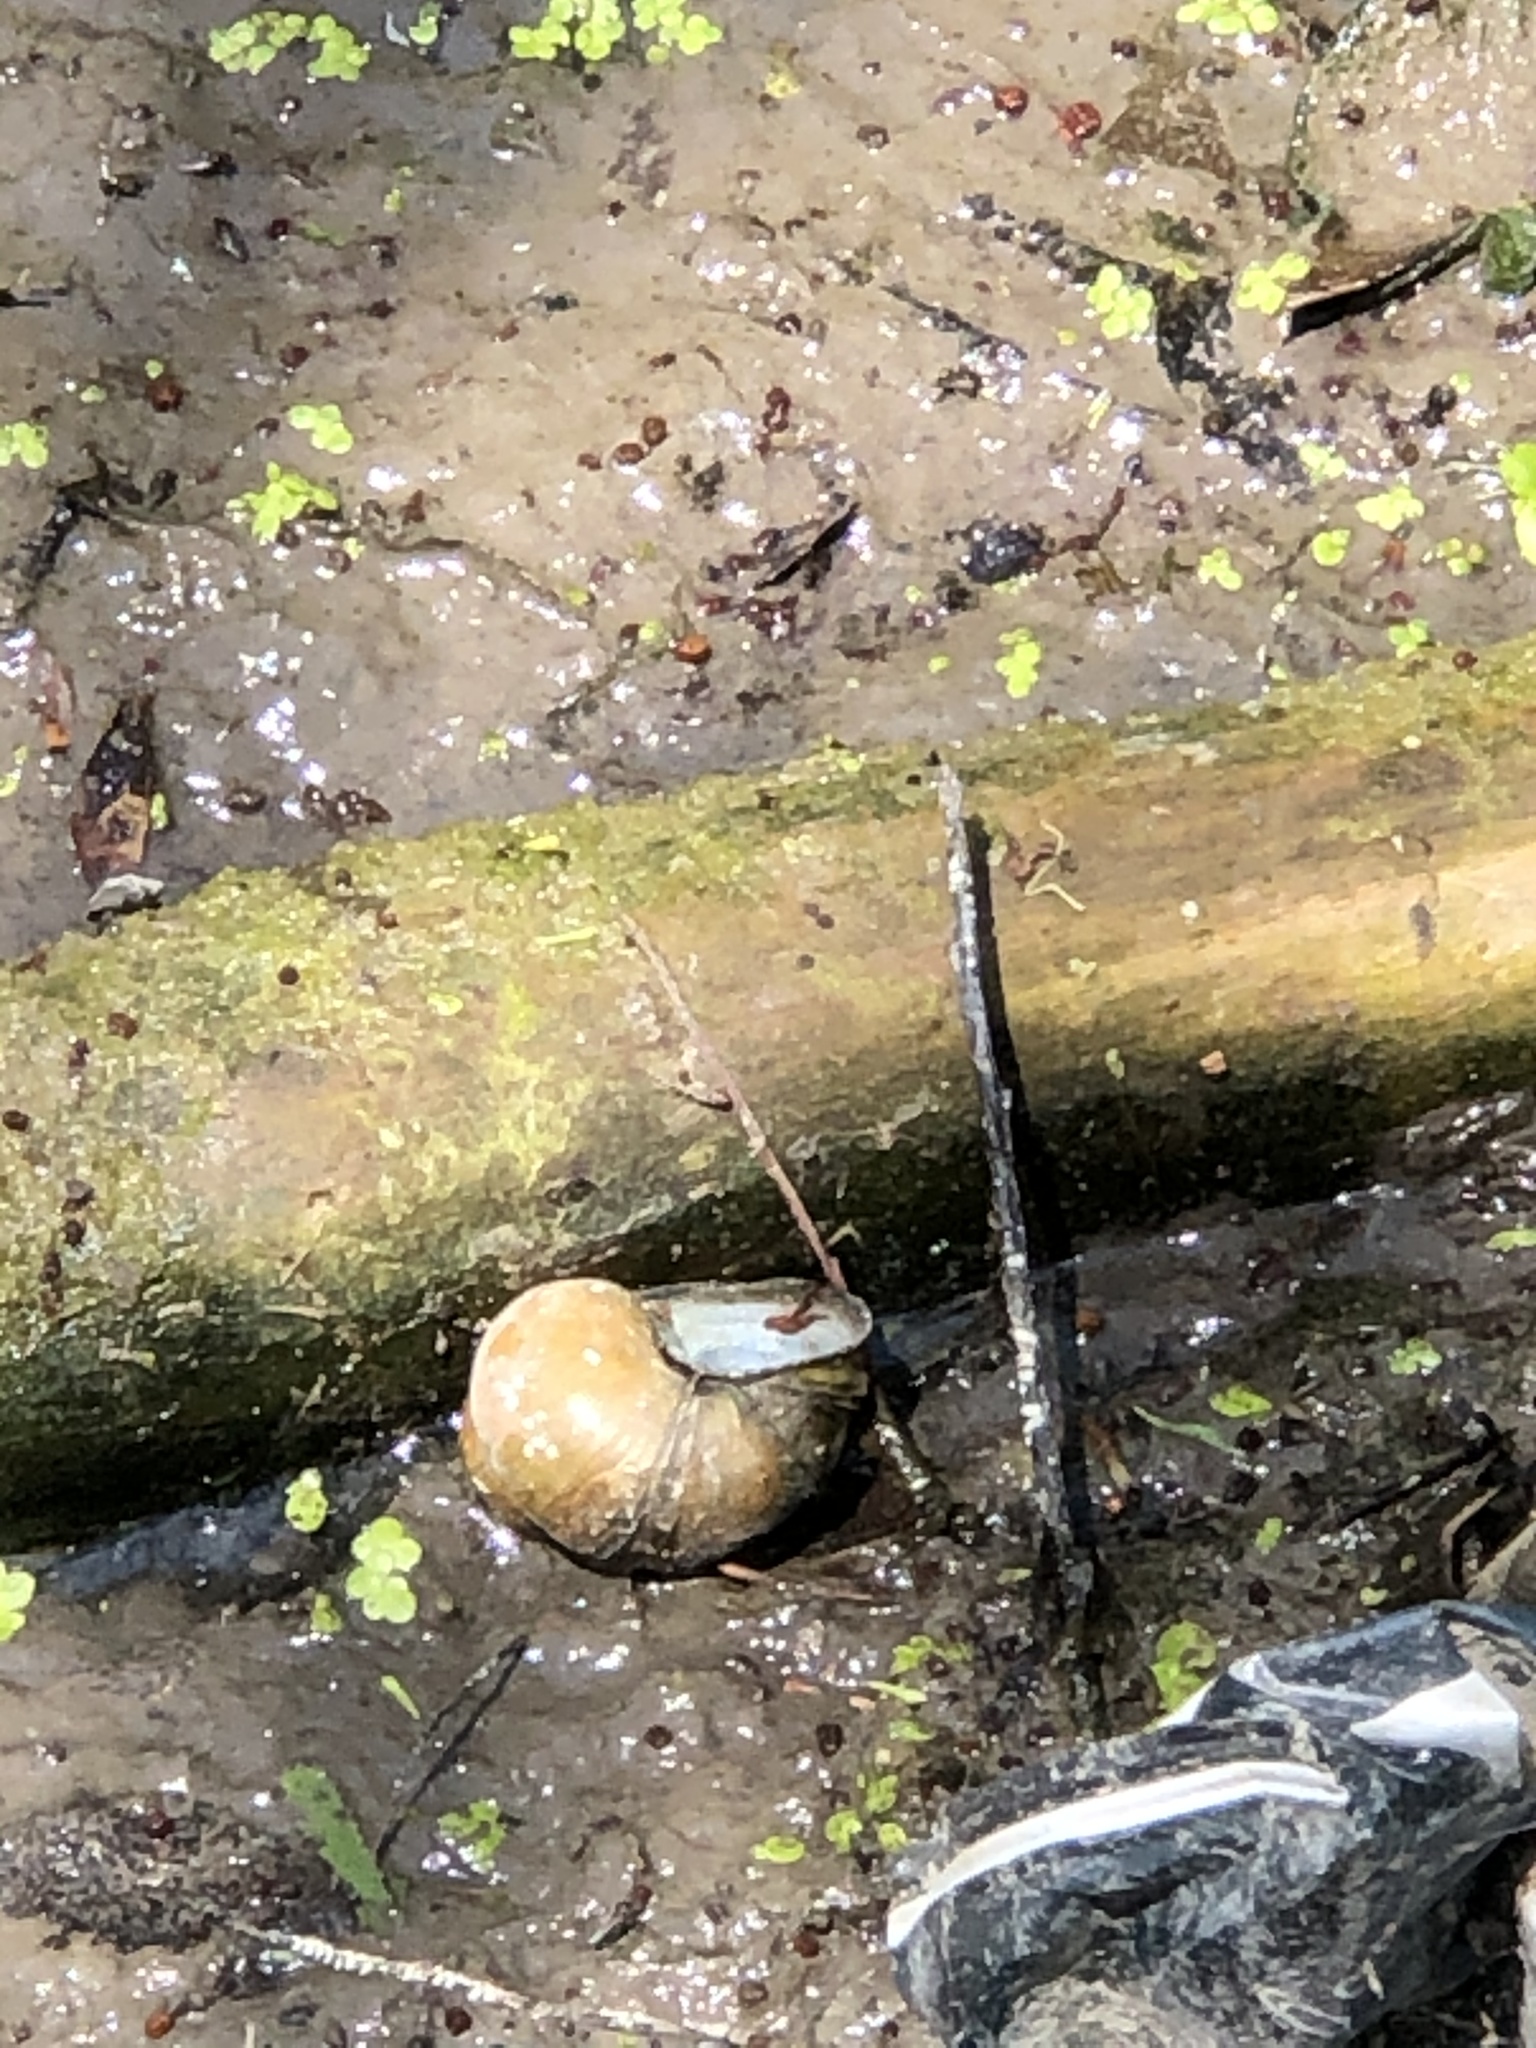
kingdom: Animalia
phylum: Mollusca
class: Gastropoda
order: Architaenioglossa
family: Viviparidae
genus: Cipangopaludina
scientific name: Cipangopaludina chinensis
